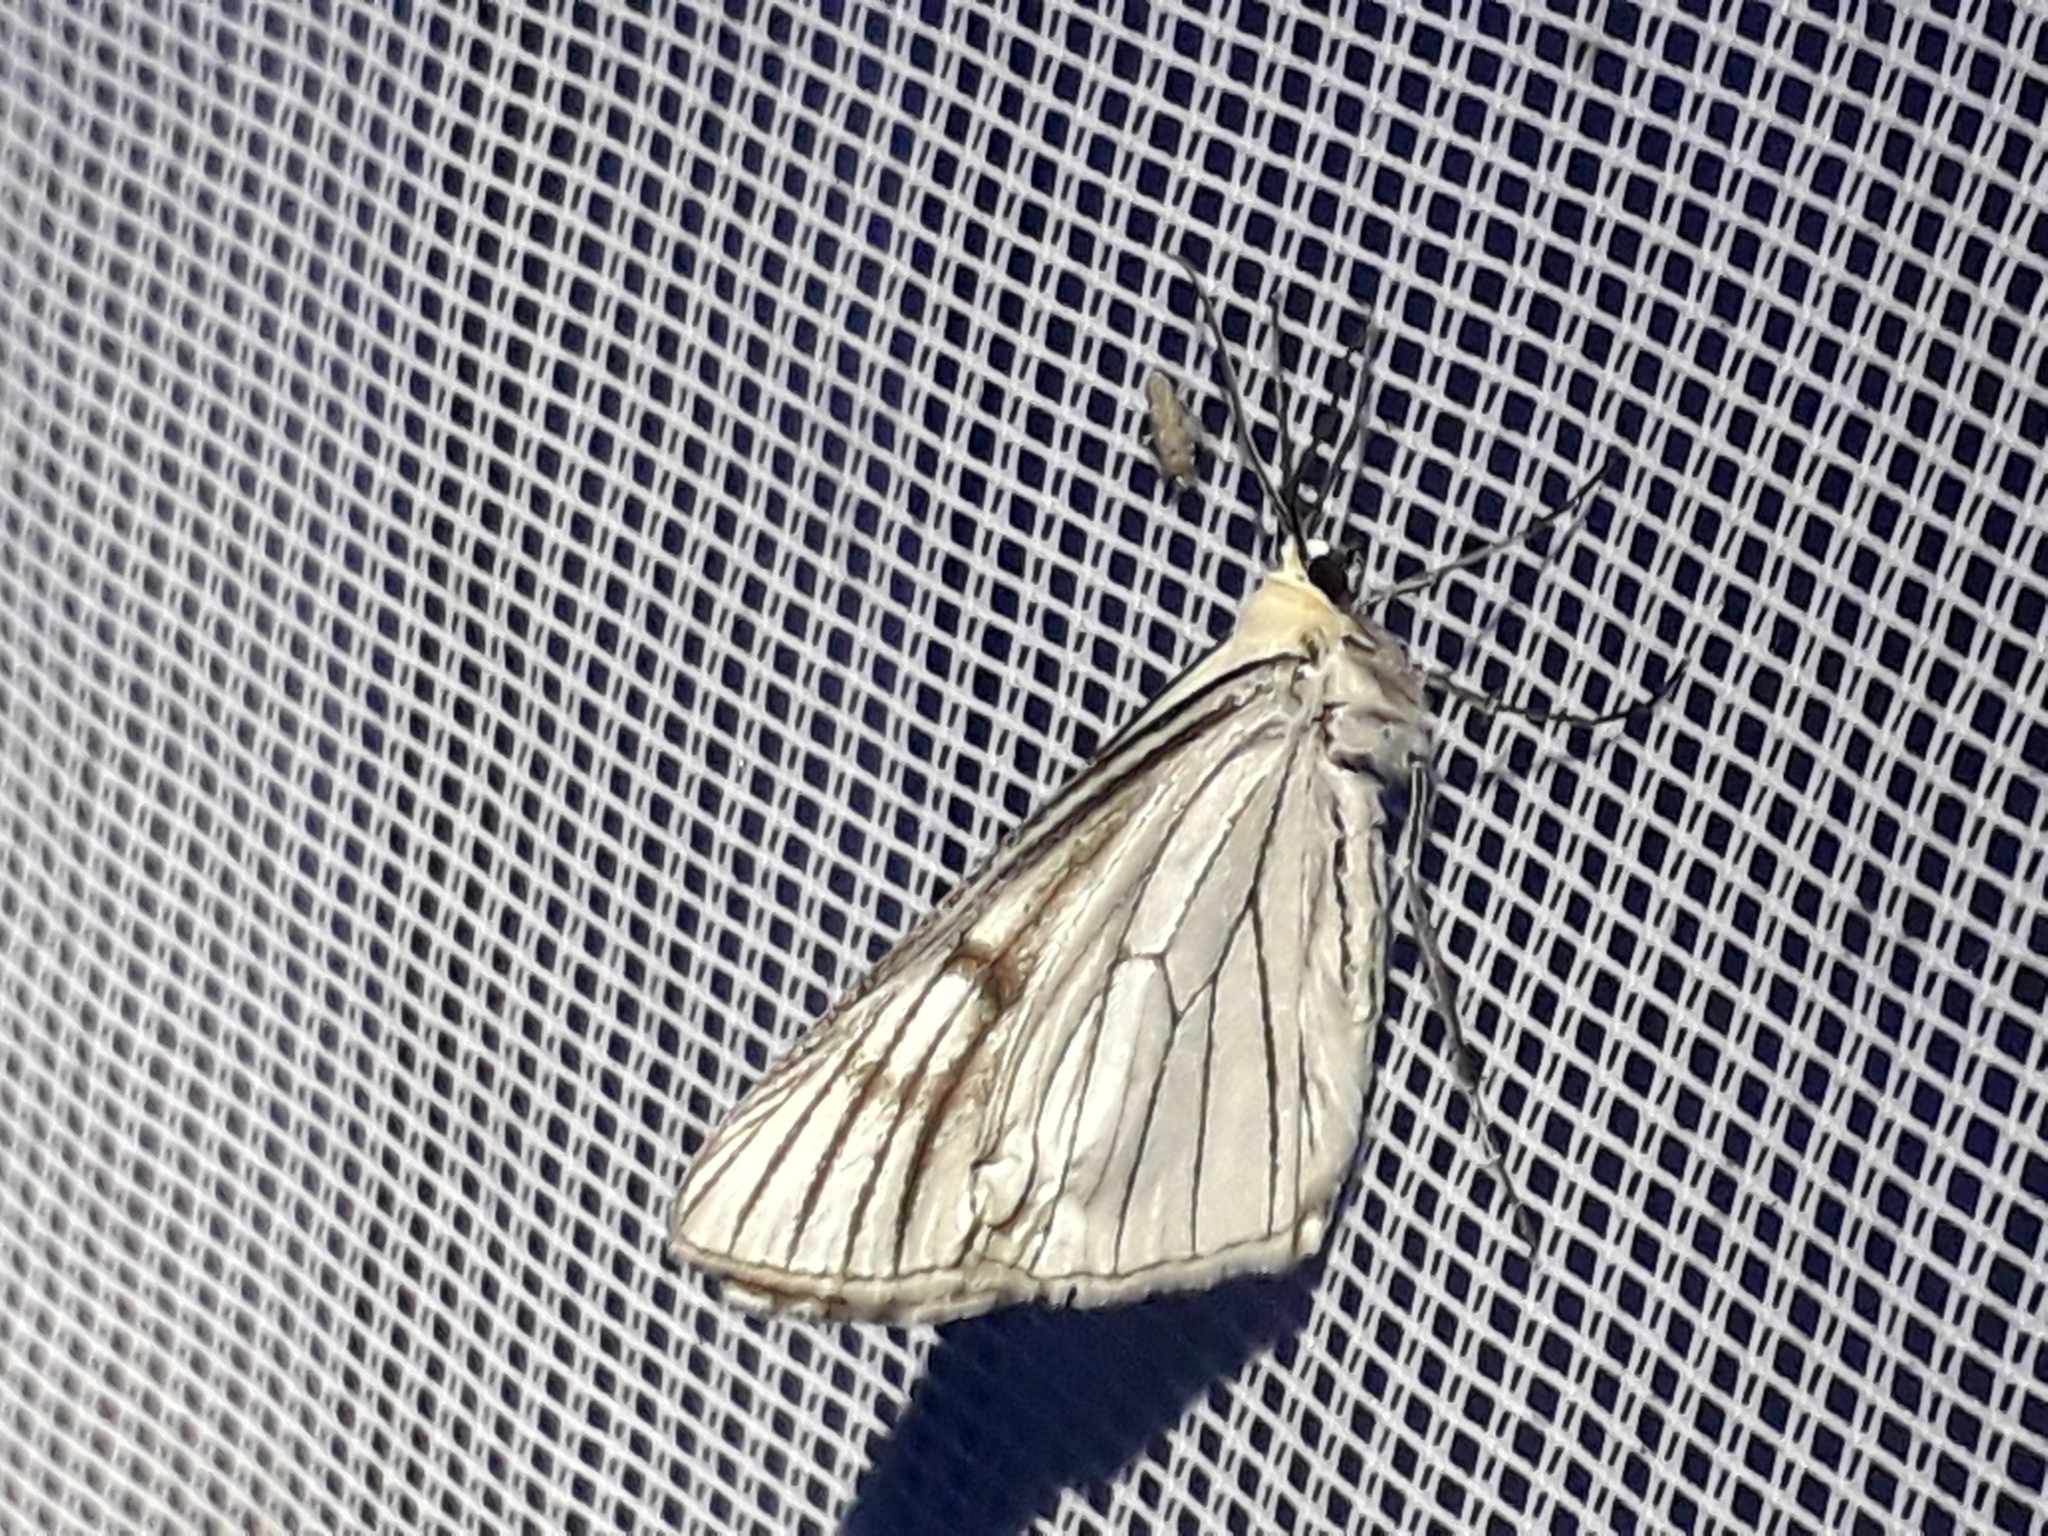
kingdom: Animalia
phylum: Arthropoda
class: Insecta
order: Lepidoptera
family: Geometridae
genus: Siona
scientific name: Siona lineata
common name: Black-veined moth
